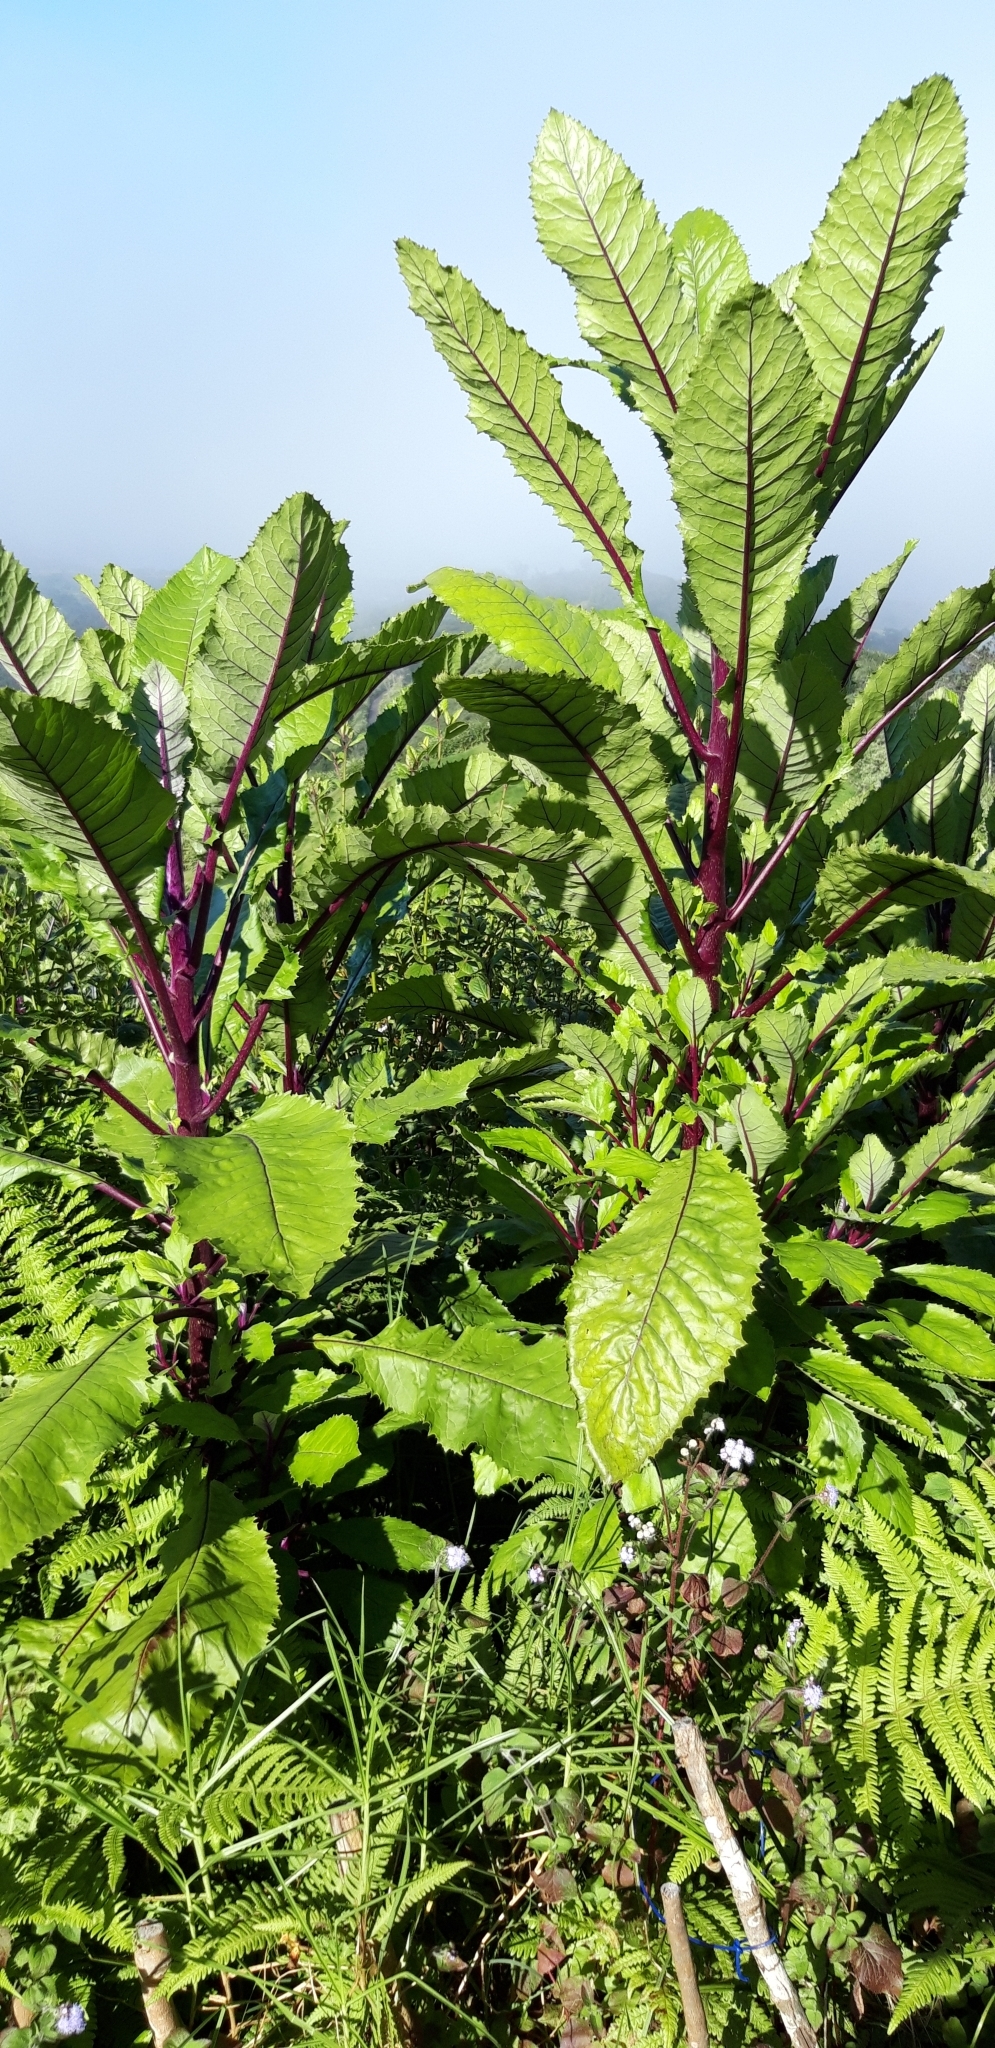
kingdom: Plantae
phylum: Tracheophyta
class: Magnoliopsida
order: Asterales
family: Asteraceae
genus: Lachanodes
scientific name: Lachanodes arborea
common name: She cabbage tree
